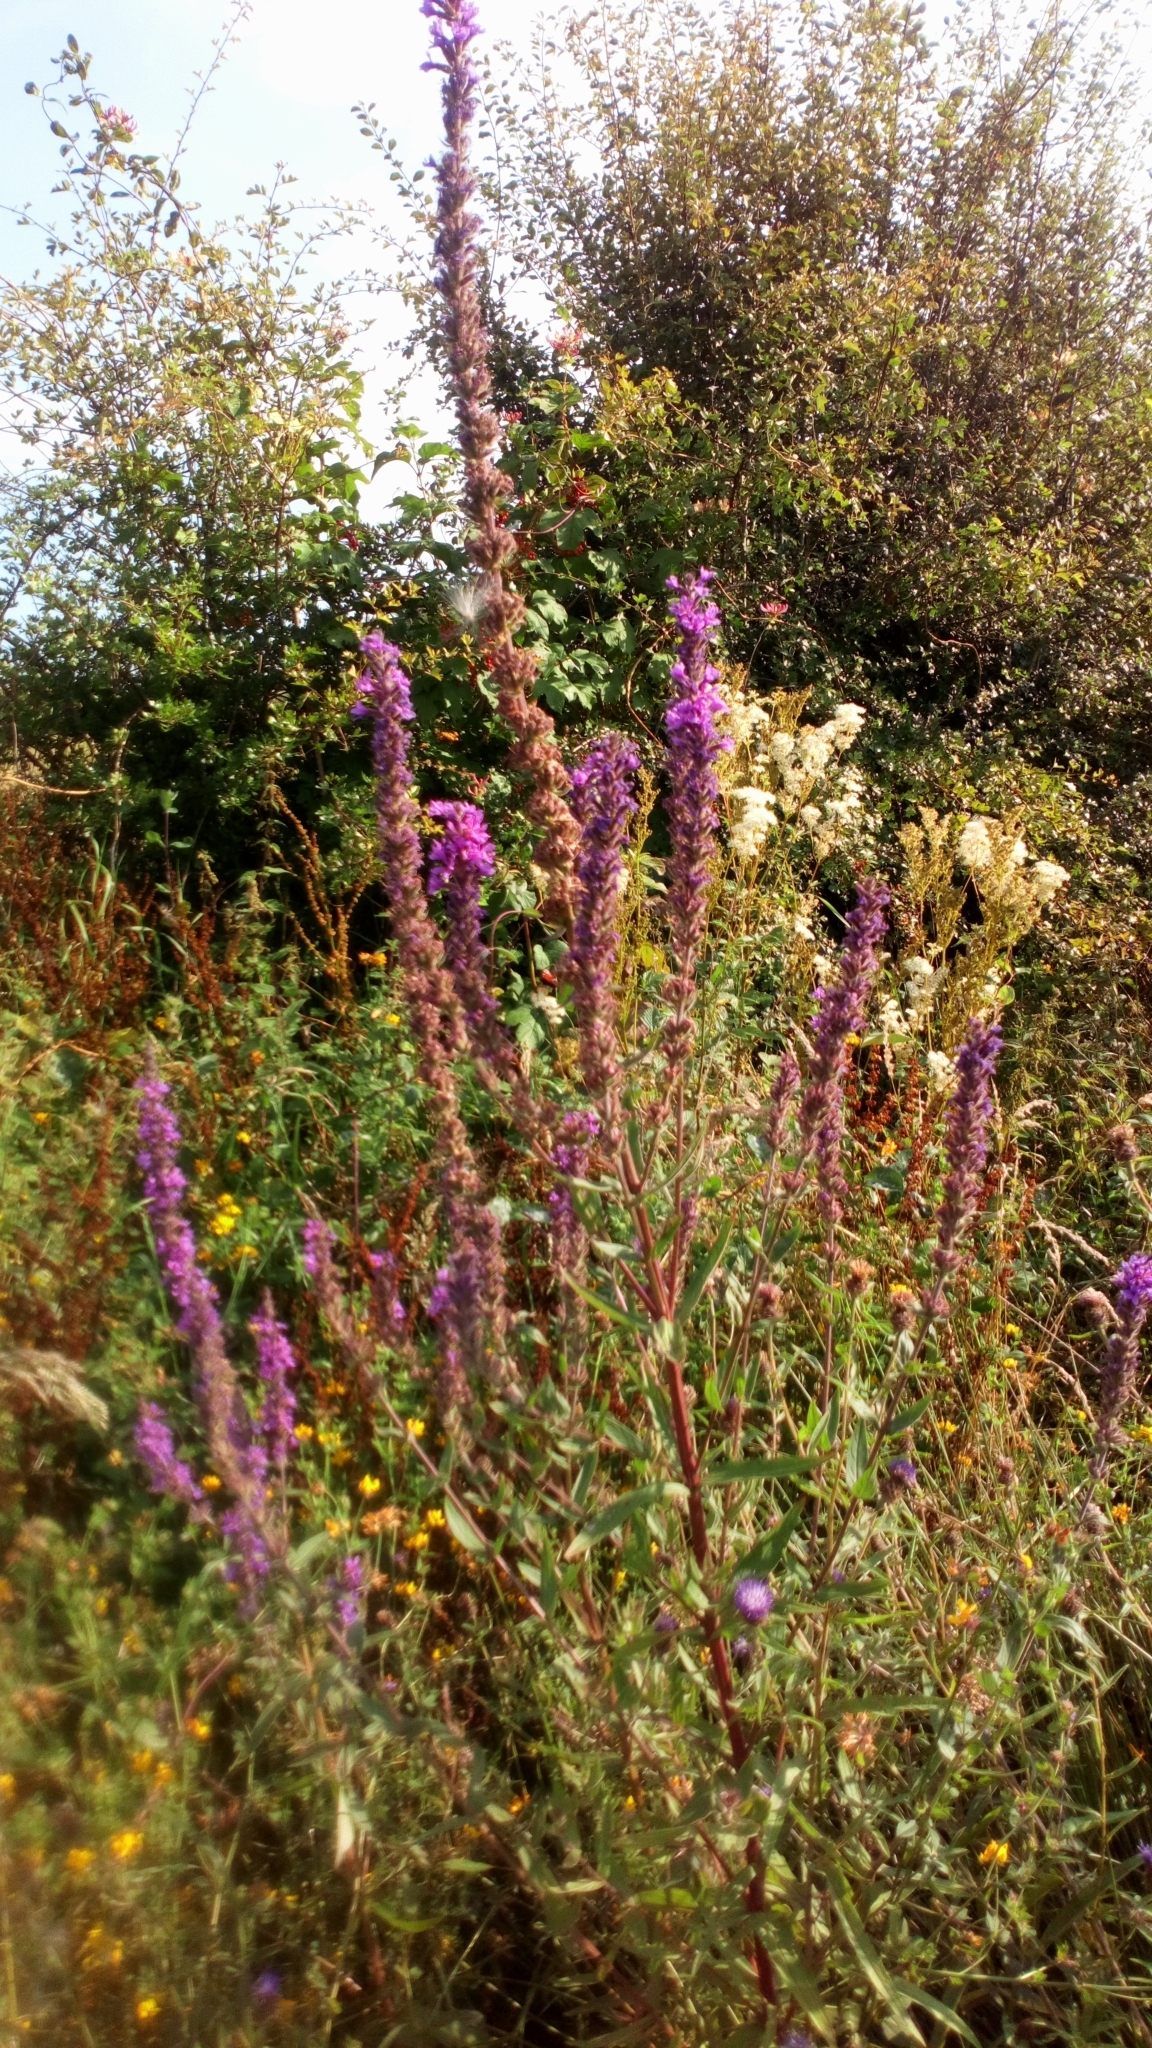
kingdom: Plantae
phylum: Tracheophyta
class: Magnoliopsida
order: Myrtales
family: Lythraceae
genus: Lythrum
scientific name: Lythrum salicaria
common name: Purple loosestrife
